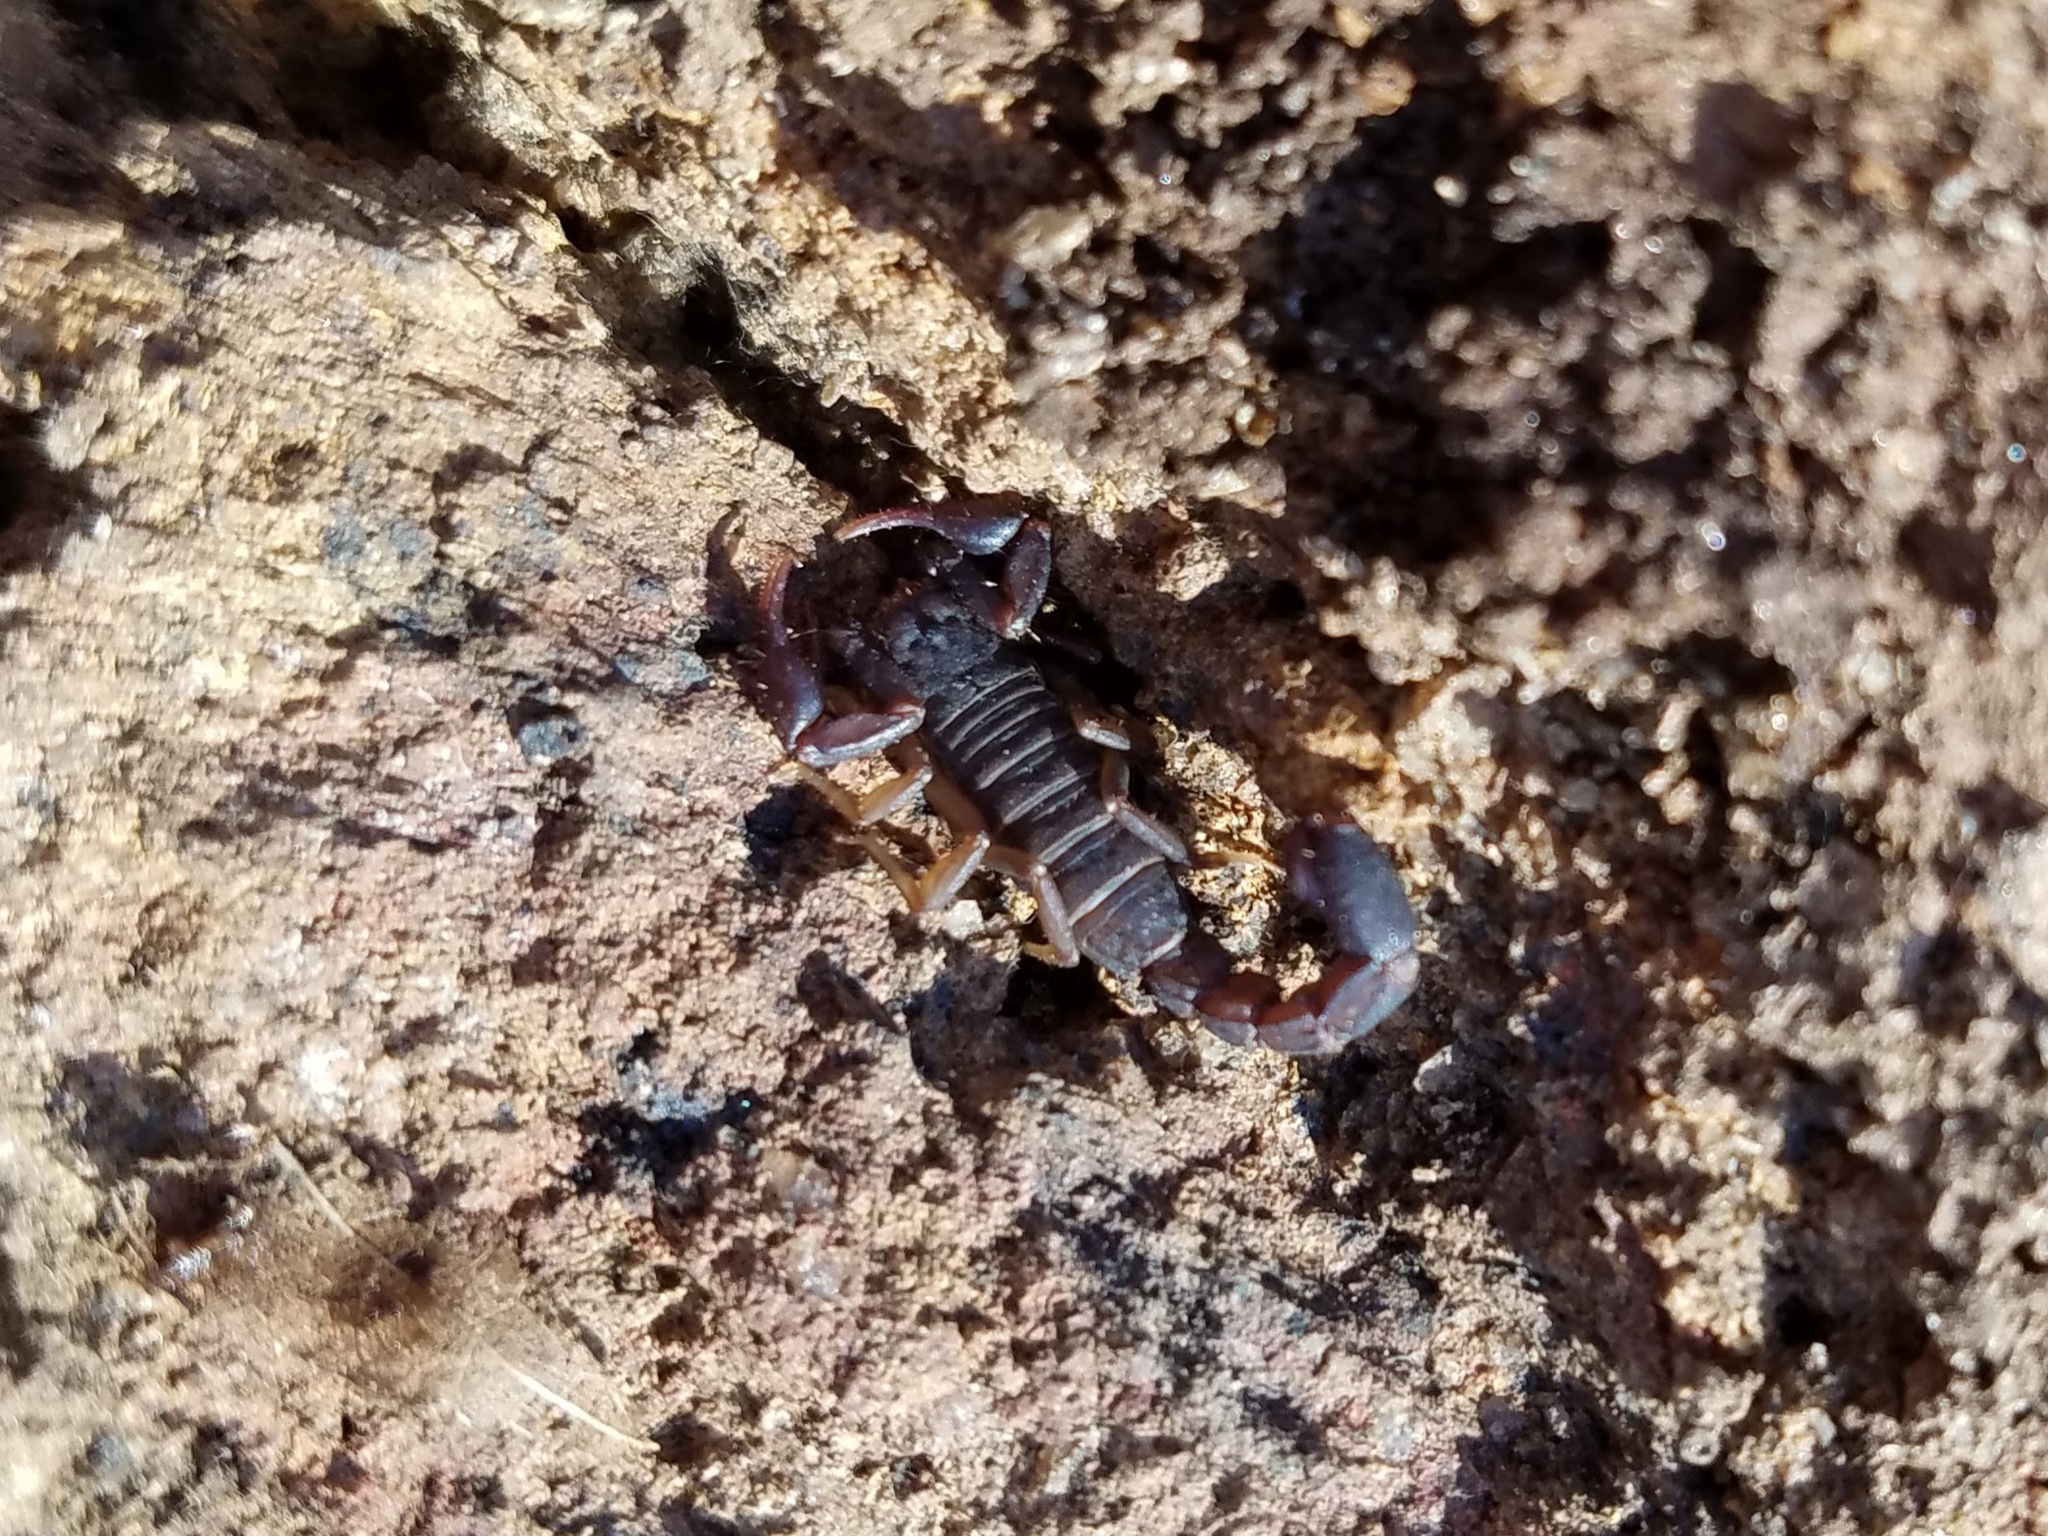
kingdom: Animalia
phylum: Arthropoda
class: Arachnida
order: Scorpiones
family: Vaejovidae
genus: Vaejovis
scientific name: Vaejovis carolinianus
